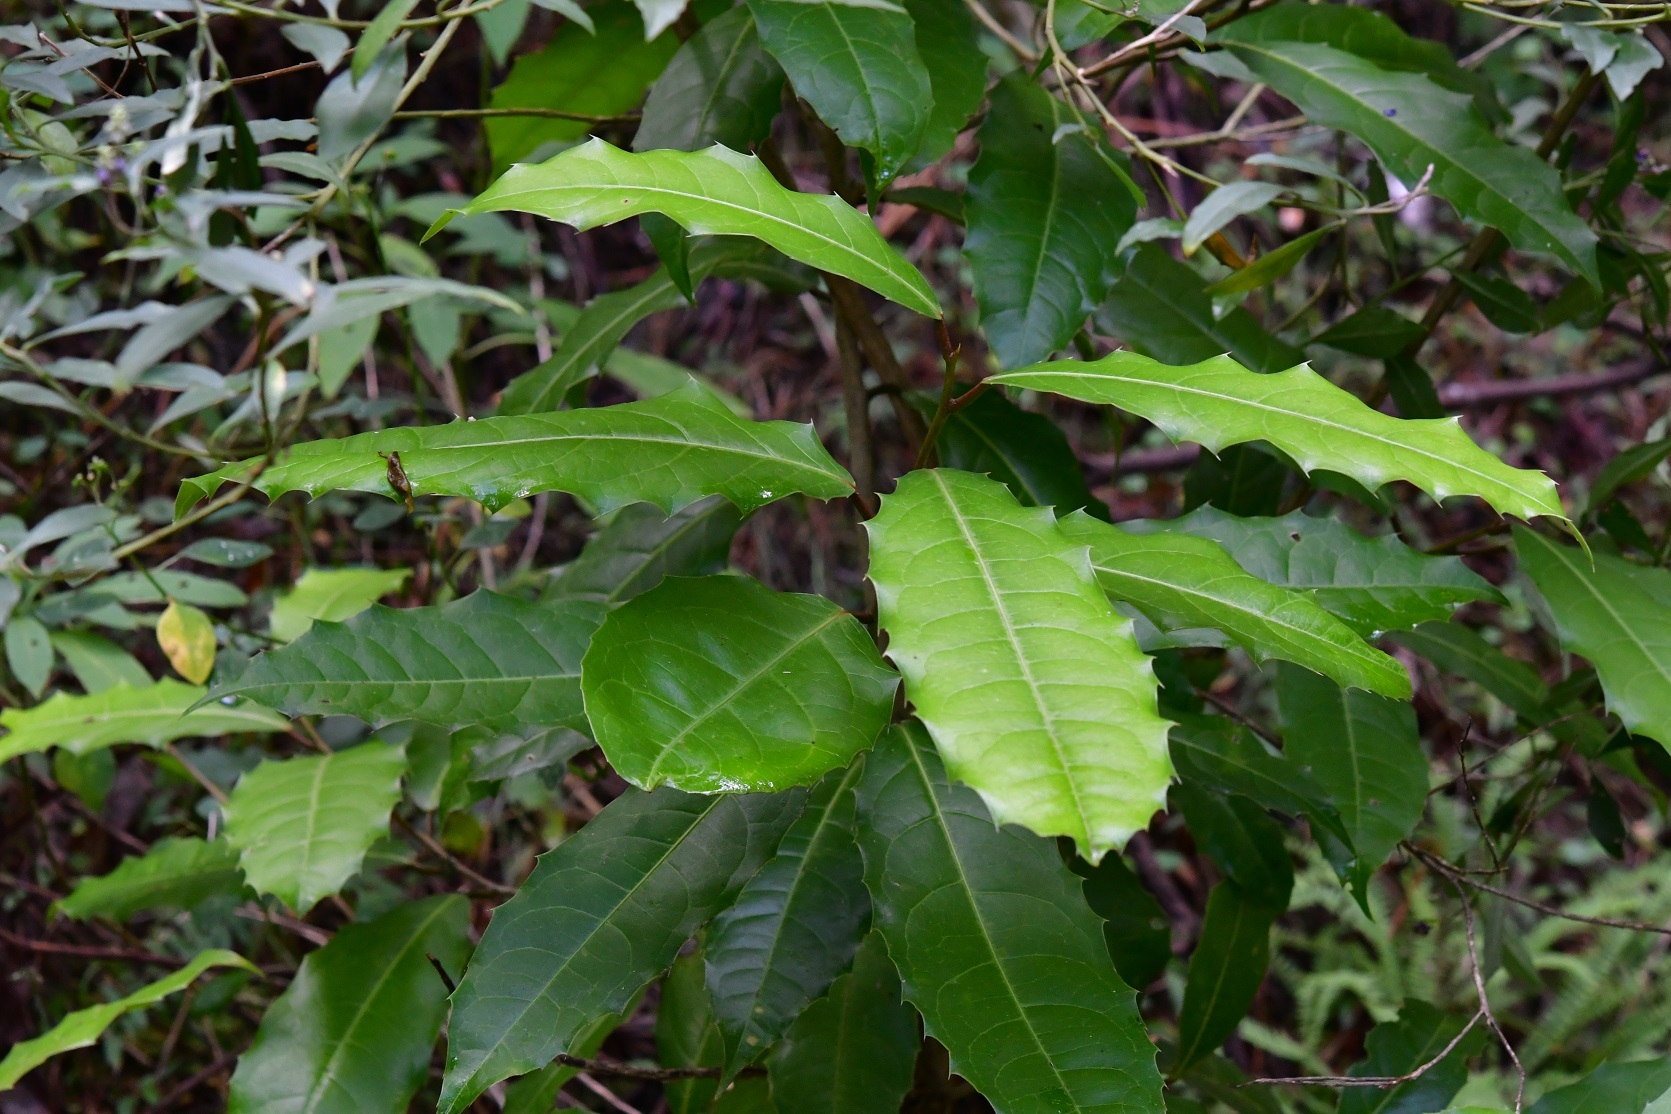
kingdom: Plantae
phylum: Tracheophyta
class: Magnoliopsida
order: Malpighiales
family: Salicaceae
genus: Olmediella
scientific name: Olmediella betschleriana
